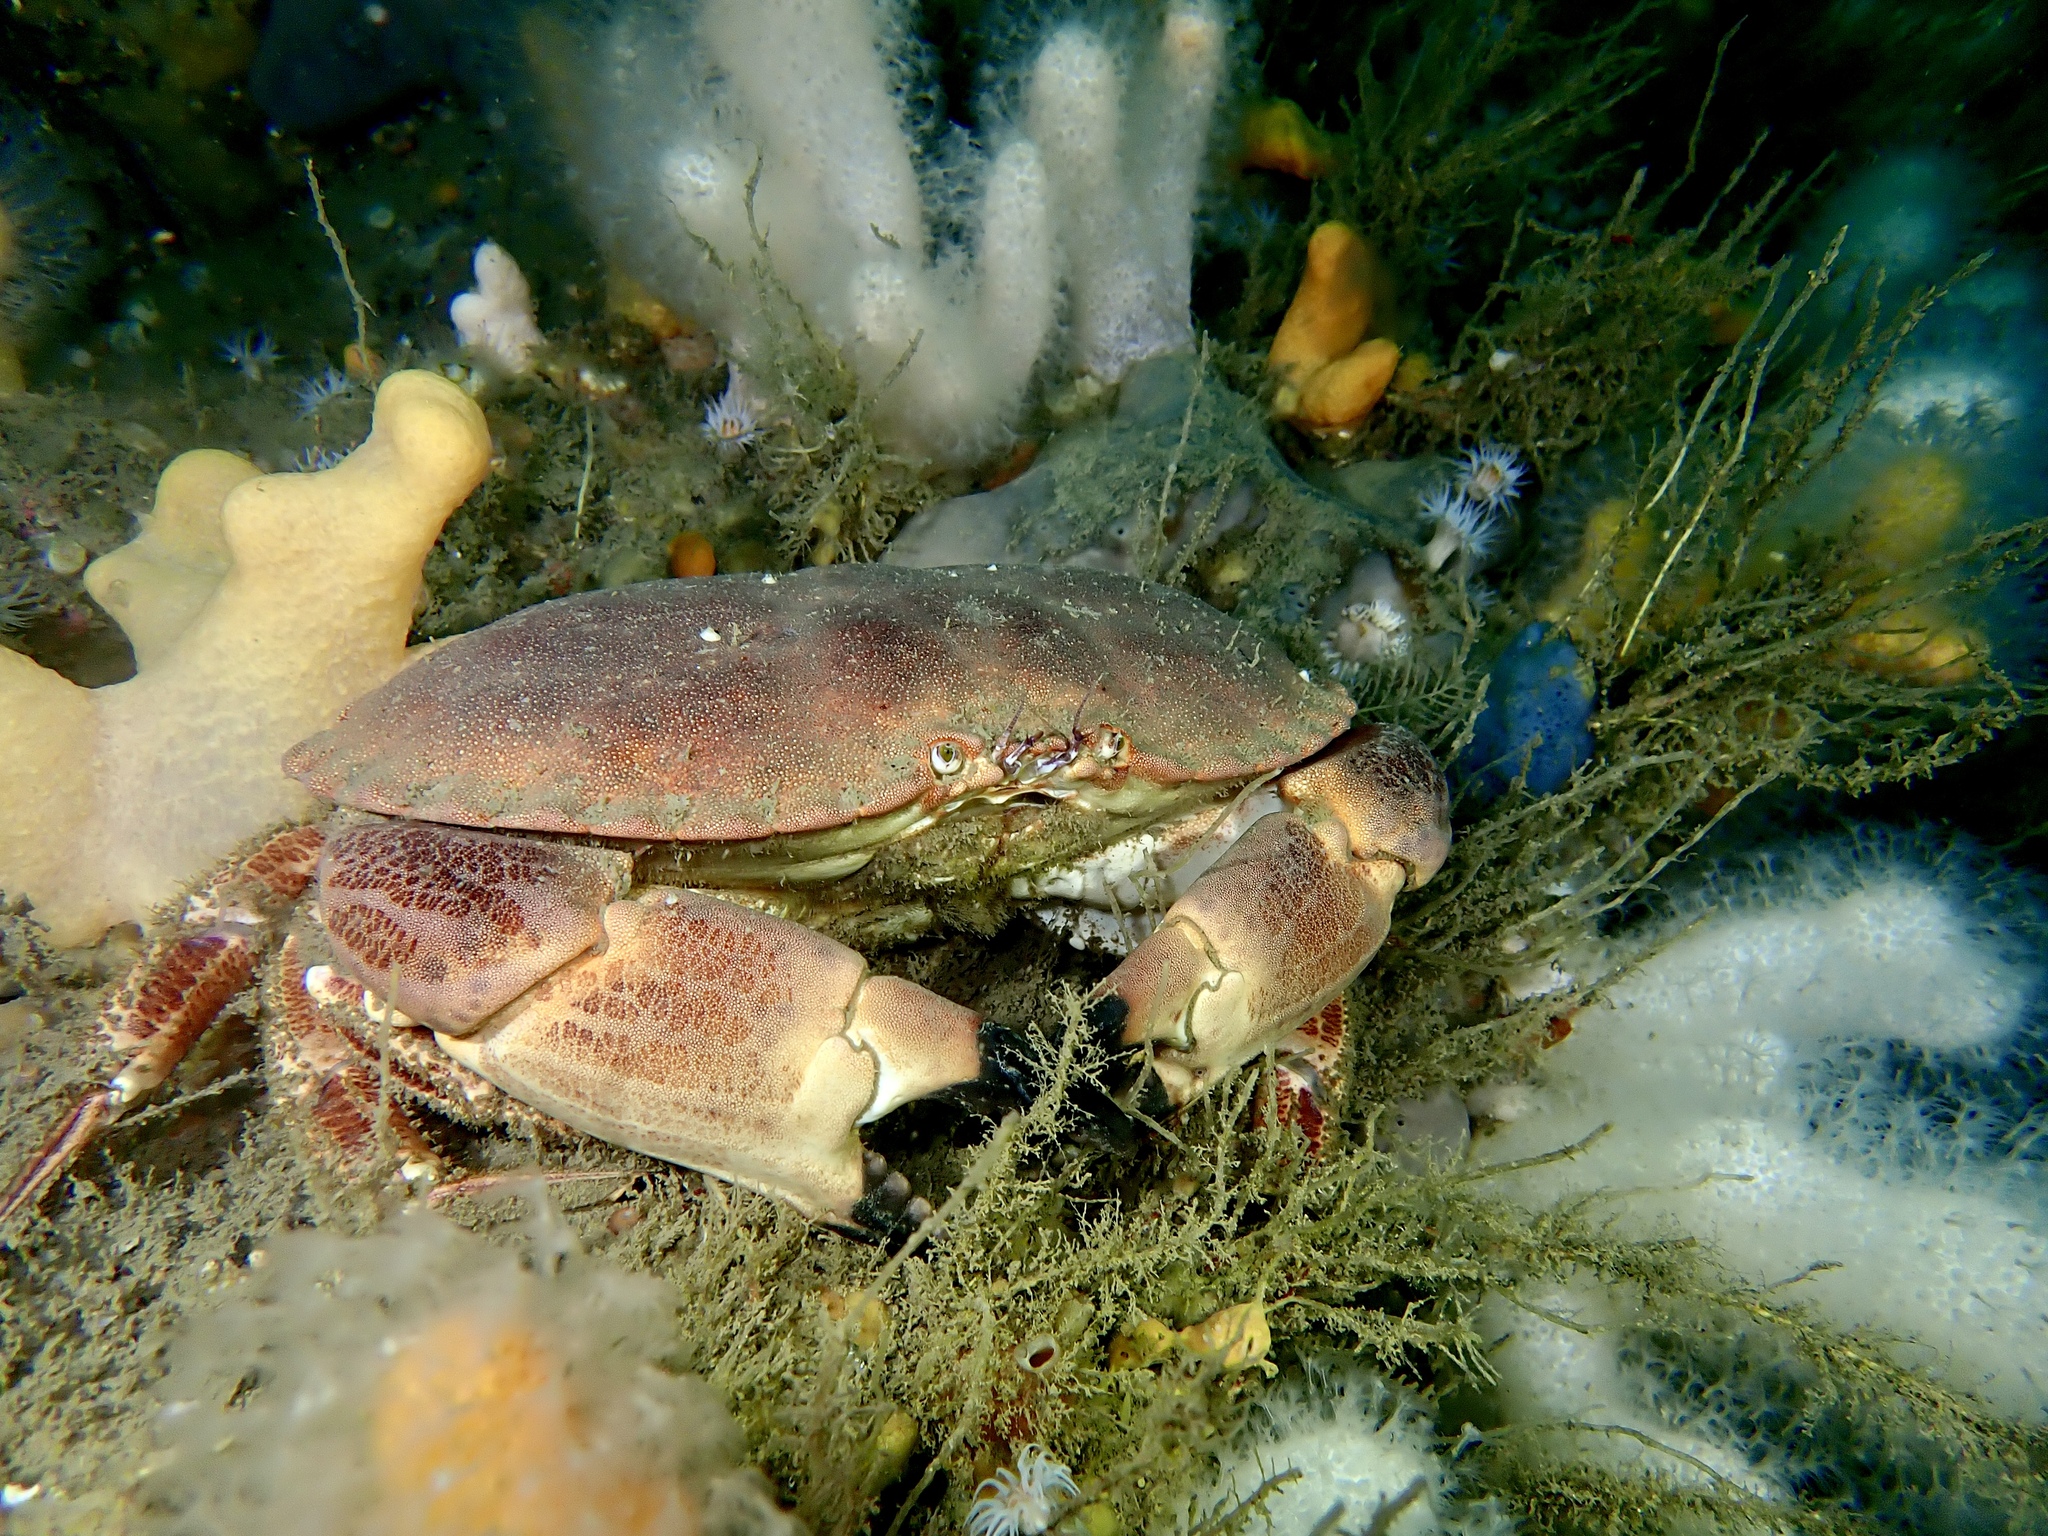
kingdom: Animalia
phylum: Arthropoda
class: Malacostraca
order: Decapoda
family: Cancridae
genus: Cancer
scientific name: Cancer pagurus
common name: Edible crab
